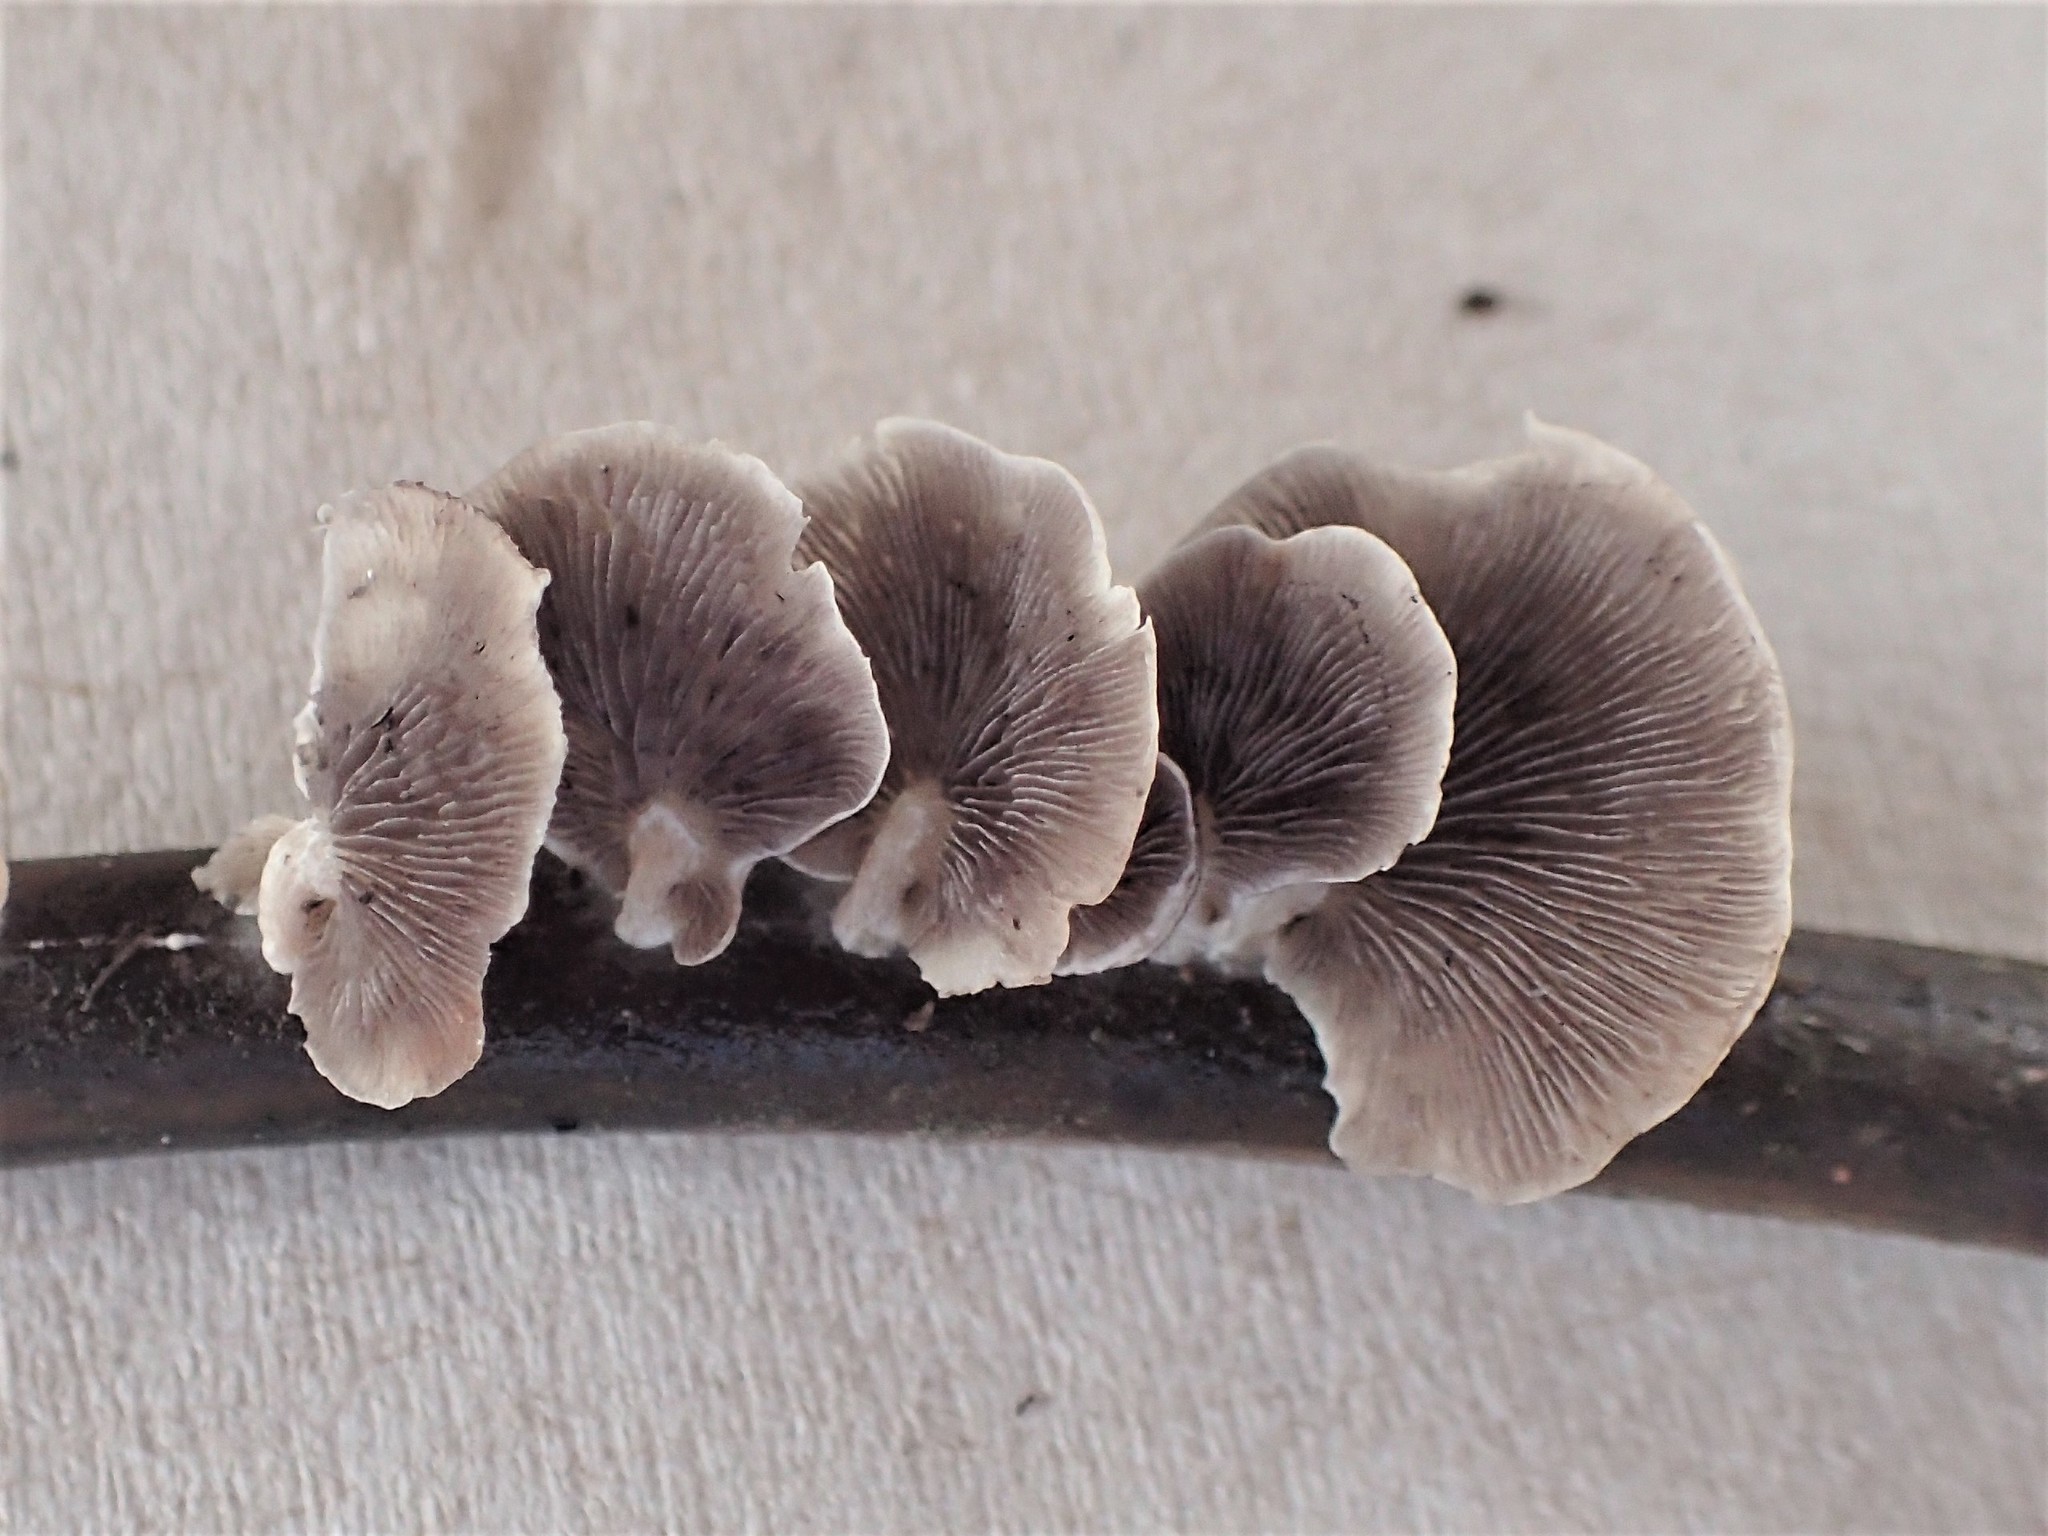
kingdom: Fungi
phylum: Basidiomycota
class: Agaricomycetes
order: Agaricales
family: Strophariaceae
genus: Deconica
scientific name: Deconica horizontalis
